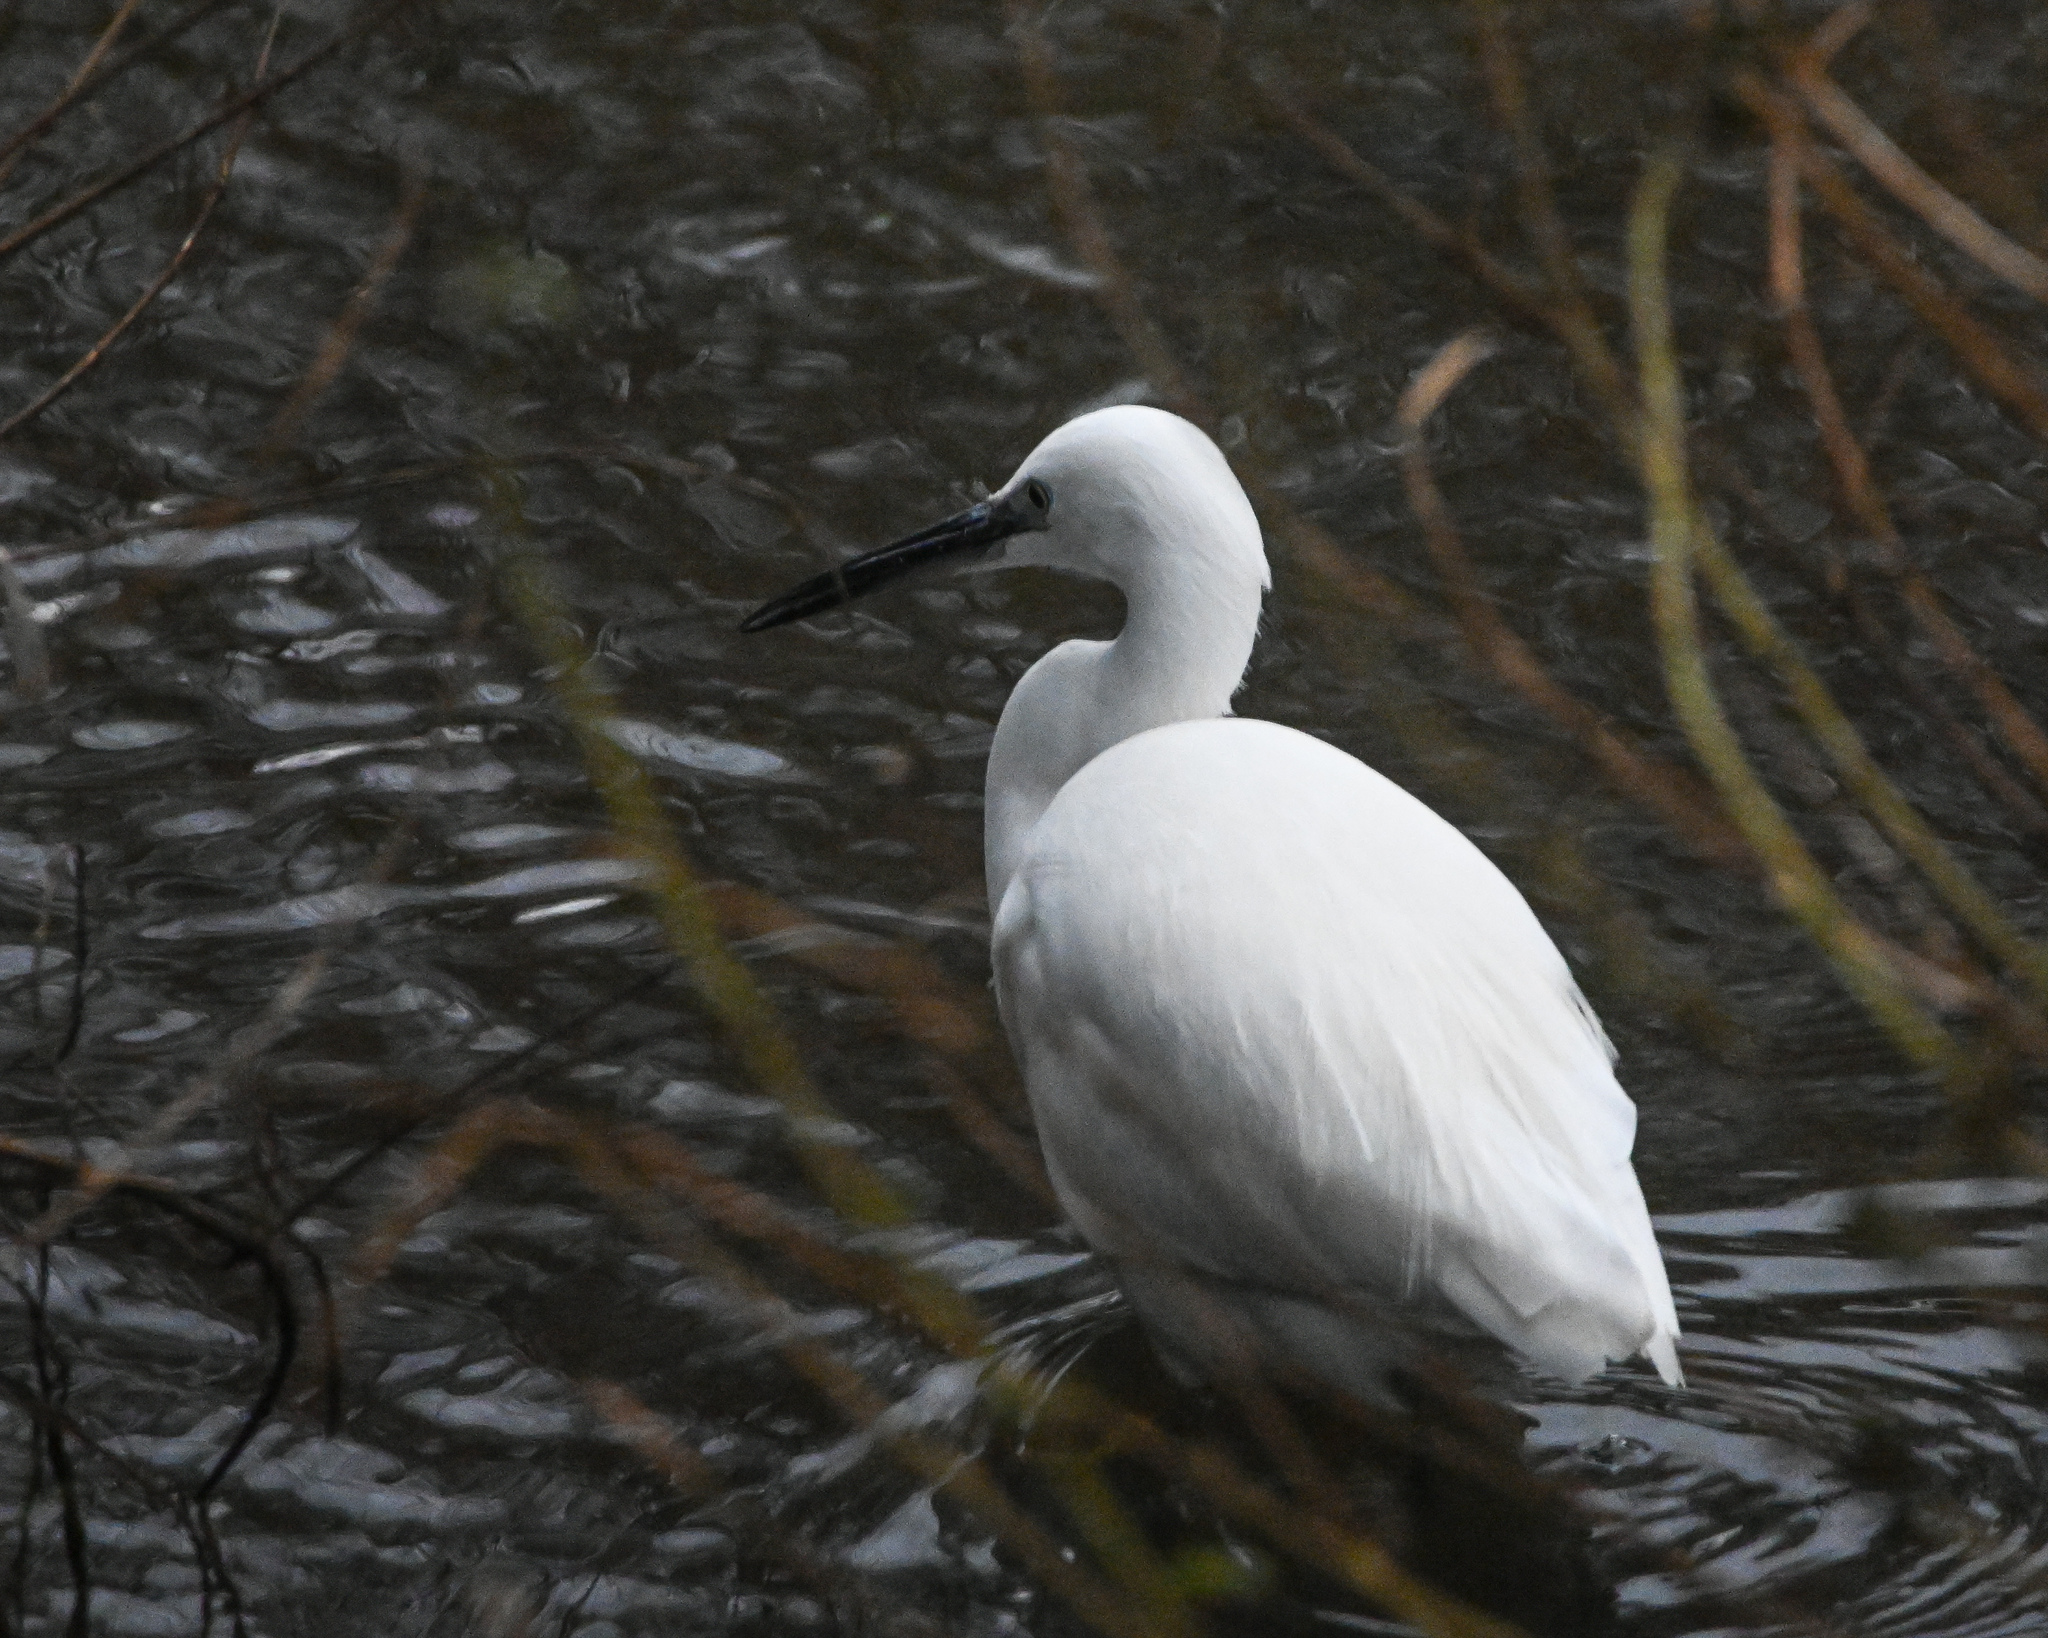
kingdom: Animalia
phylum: Chordata
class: Aves
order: Pelecaniformes
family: Ardeidae
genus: Egretta
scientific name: Egretta garzetta
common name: Little egret
